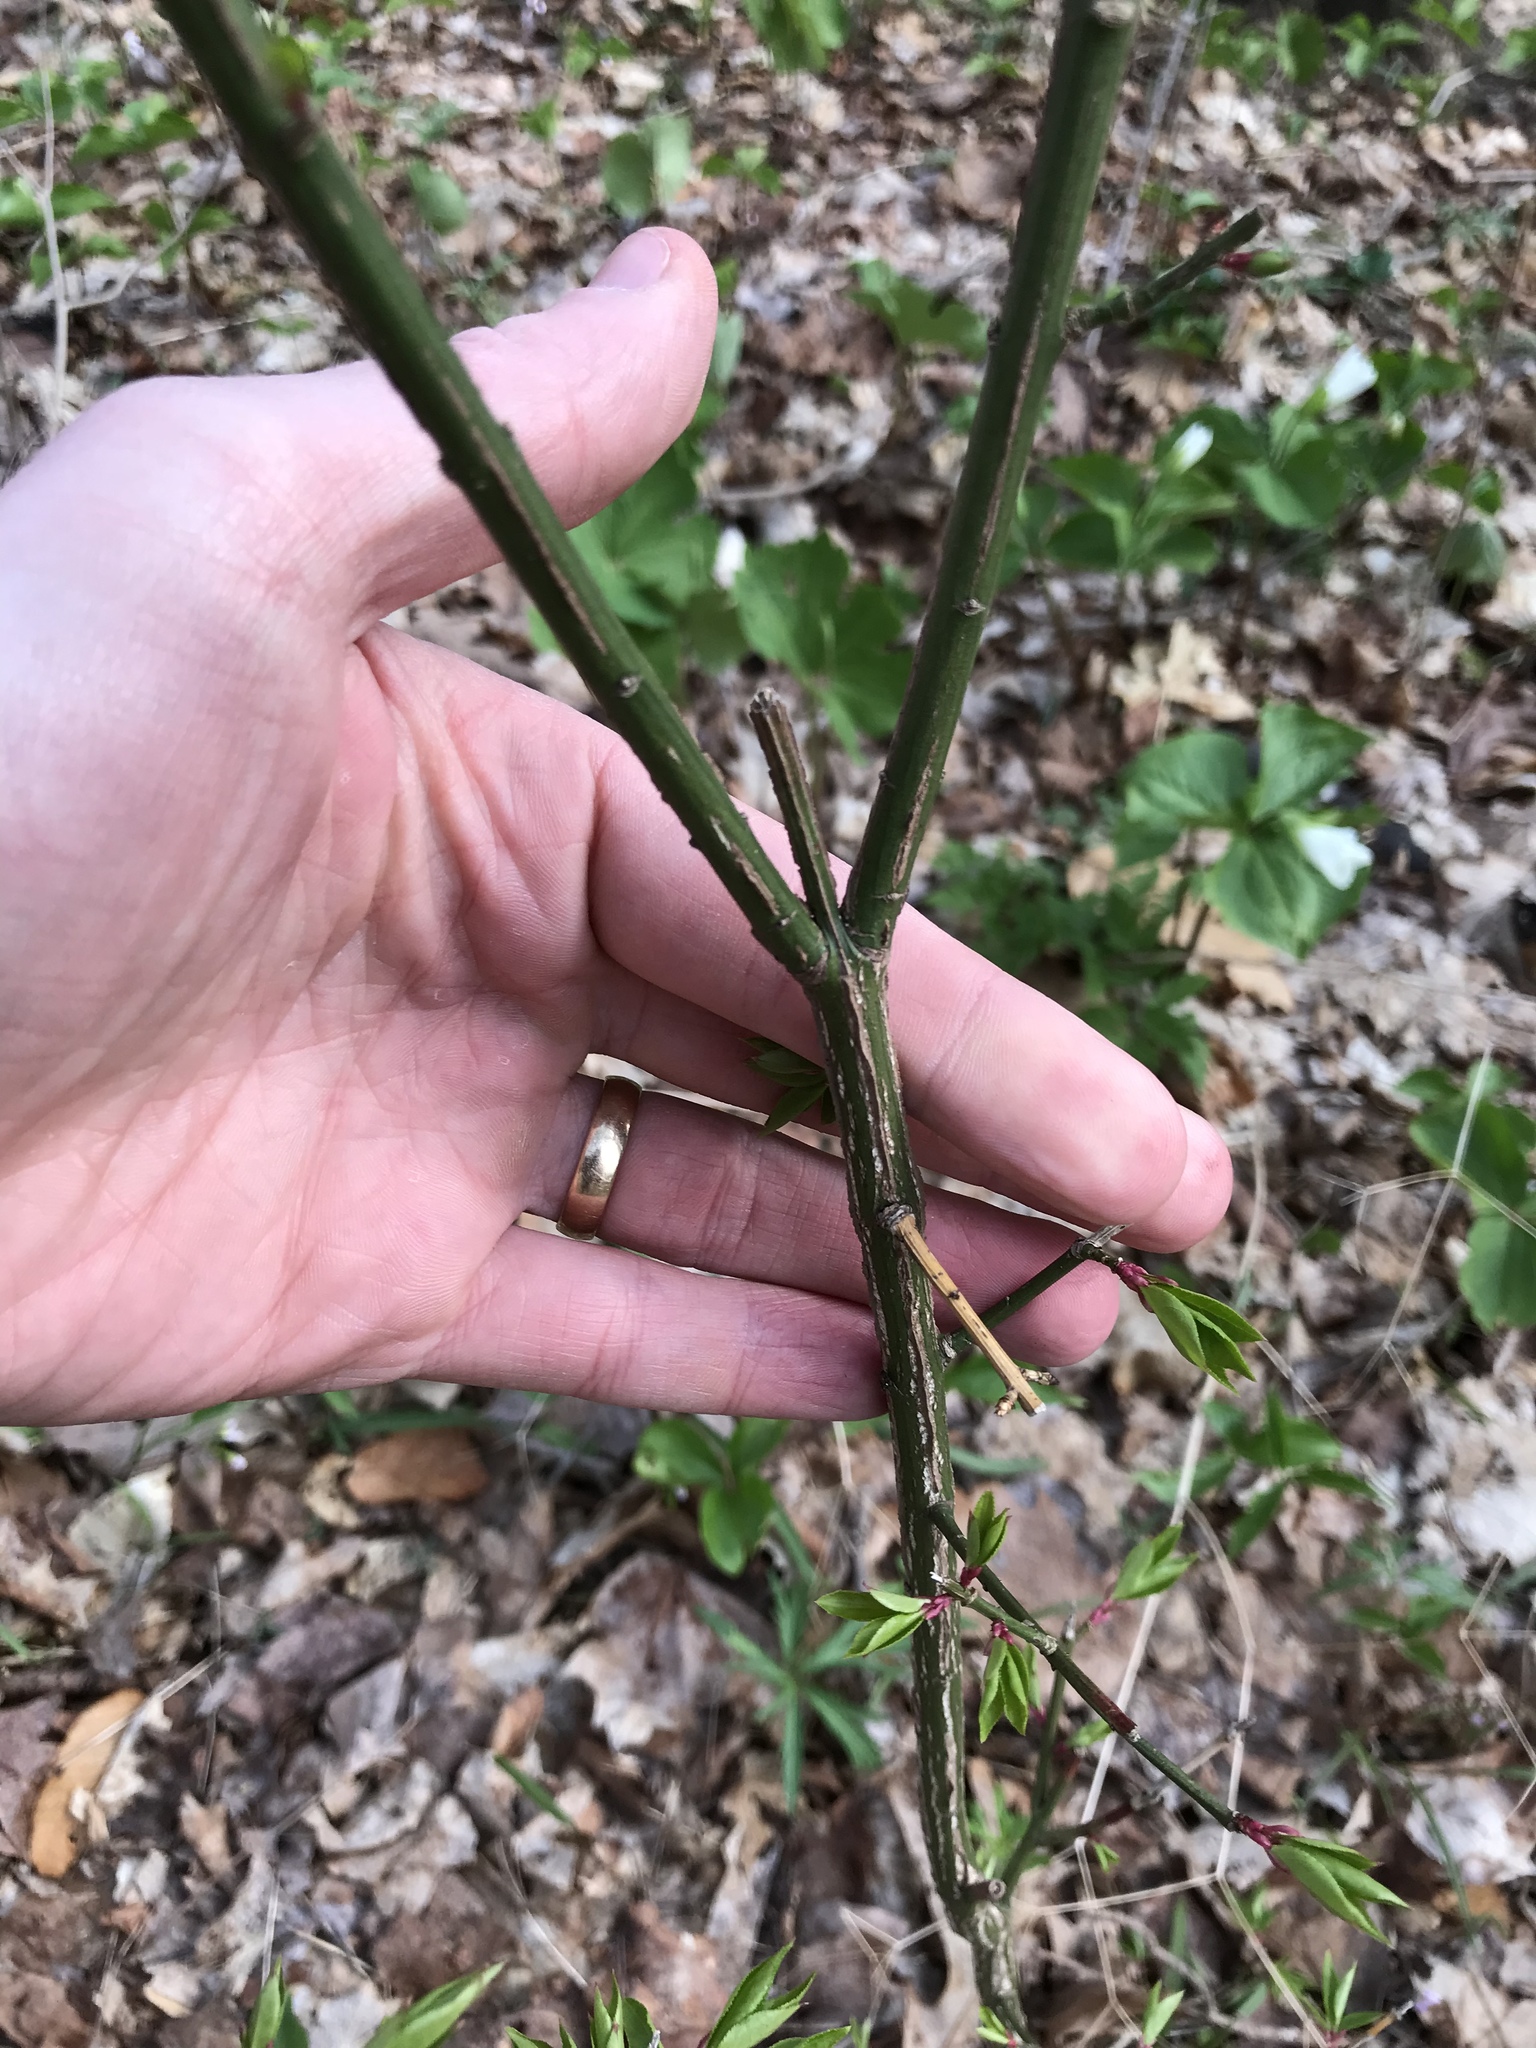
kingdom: Plantae
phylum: Tracheophyta
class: Magnoliopsida
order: Celastrales
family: Celastraceae
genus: Euonymus
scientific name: Euonymus alatus
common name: Winged euonymus
